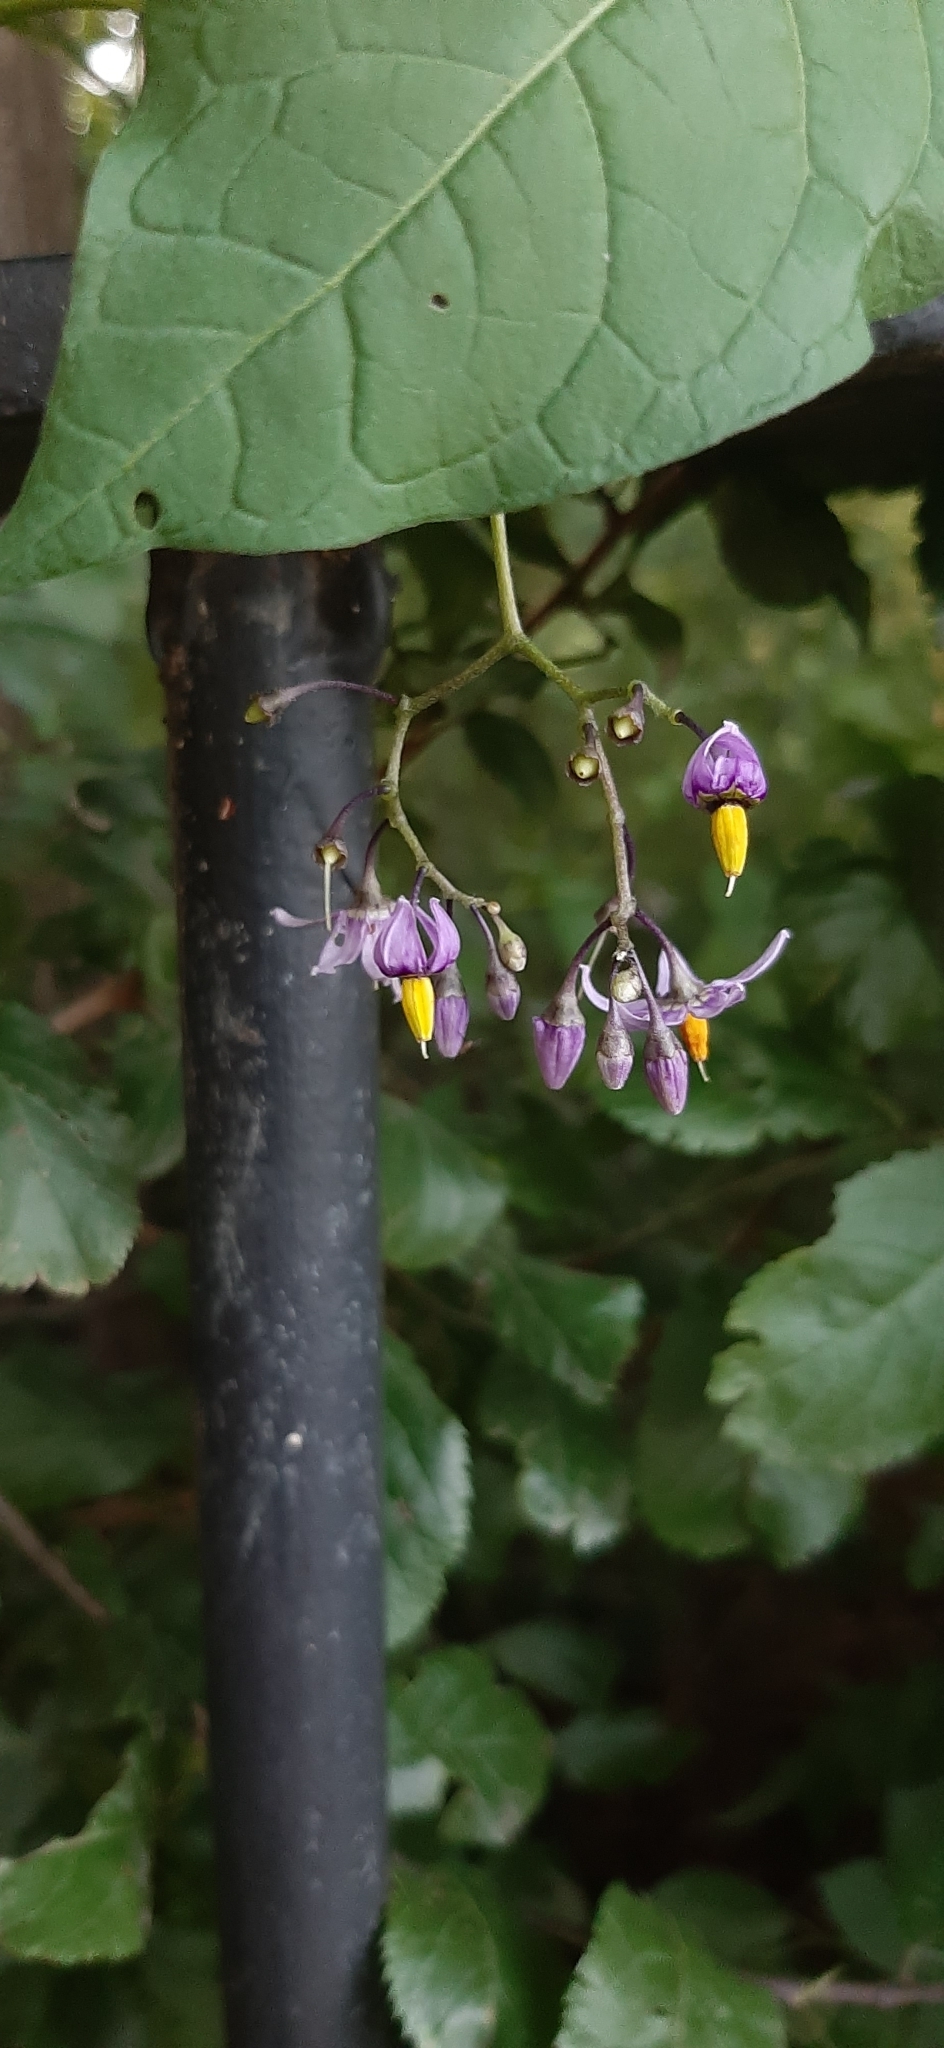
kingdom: Plantae
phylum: Tracheophyta
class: Magnoliopsida
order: Solanales
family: Solanaceae
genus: Solanum
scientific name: Solanum dulcamara
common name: Climbing nightshade
